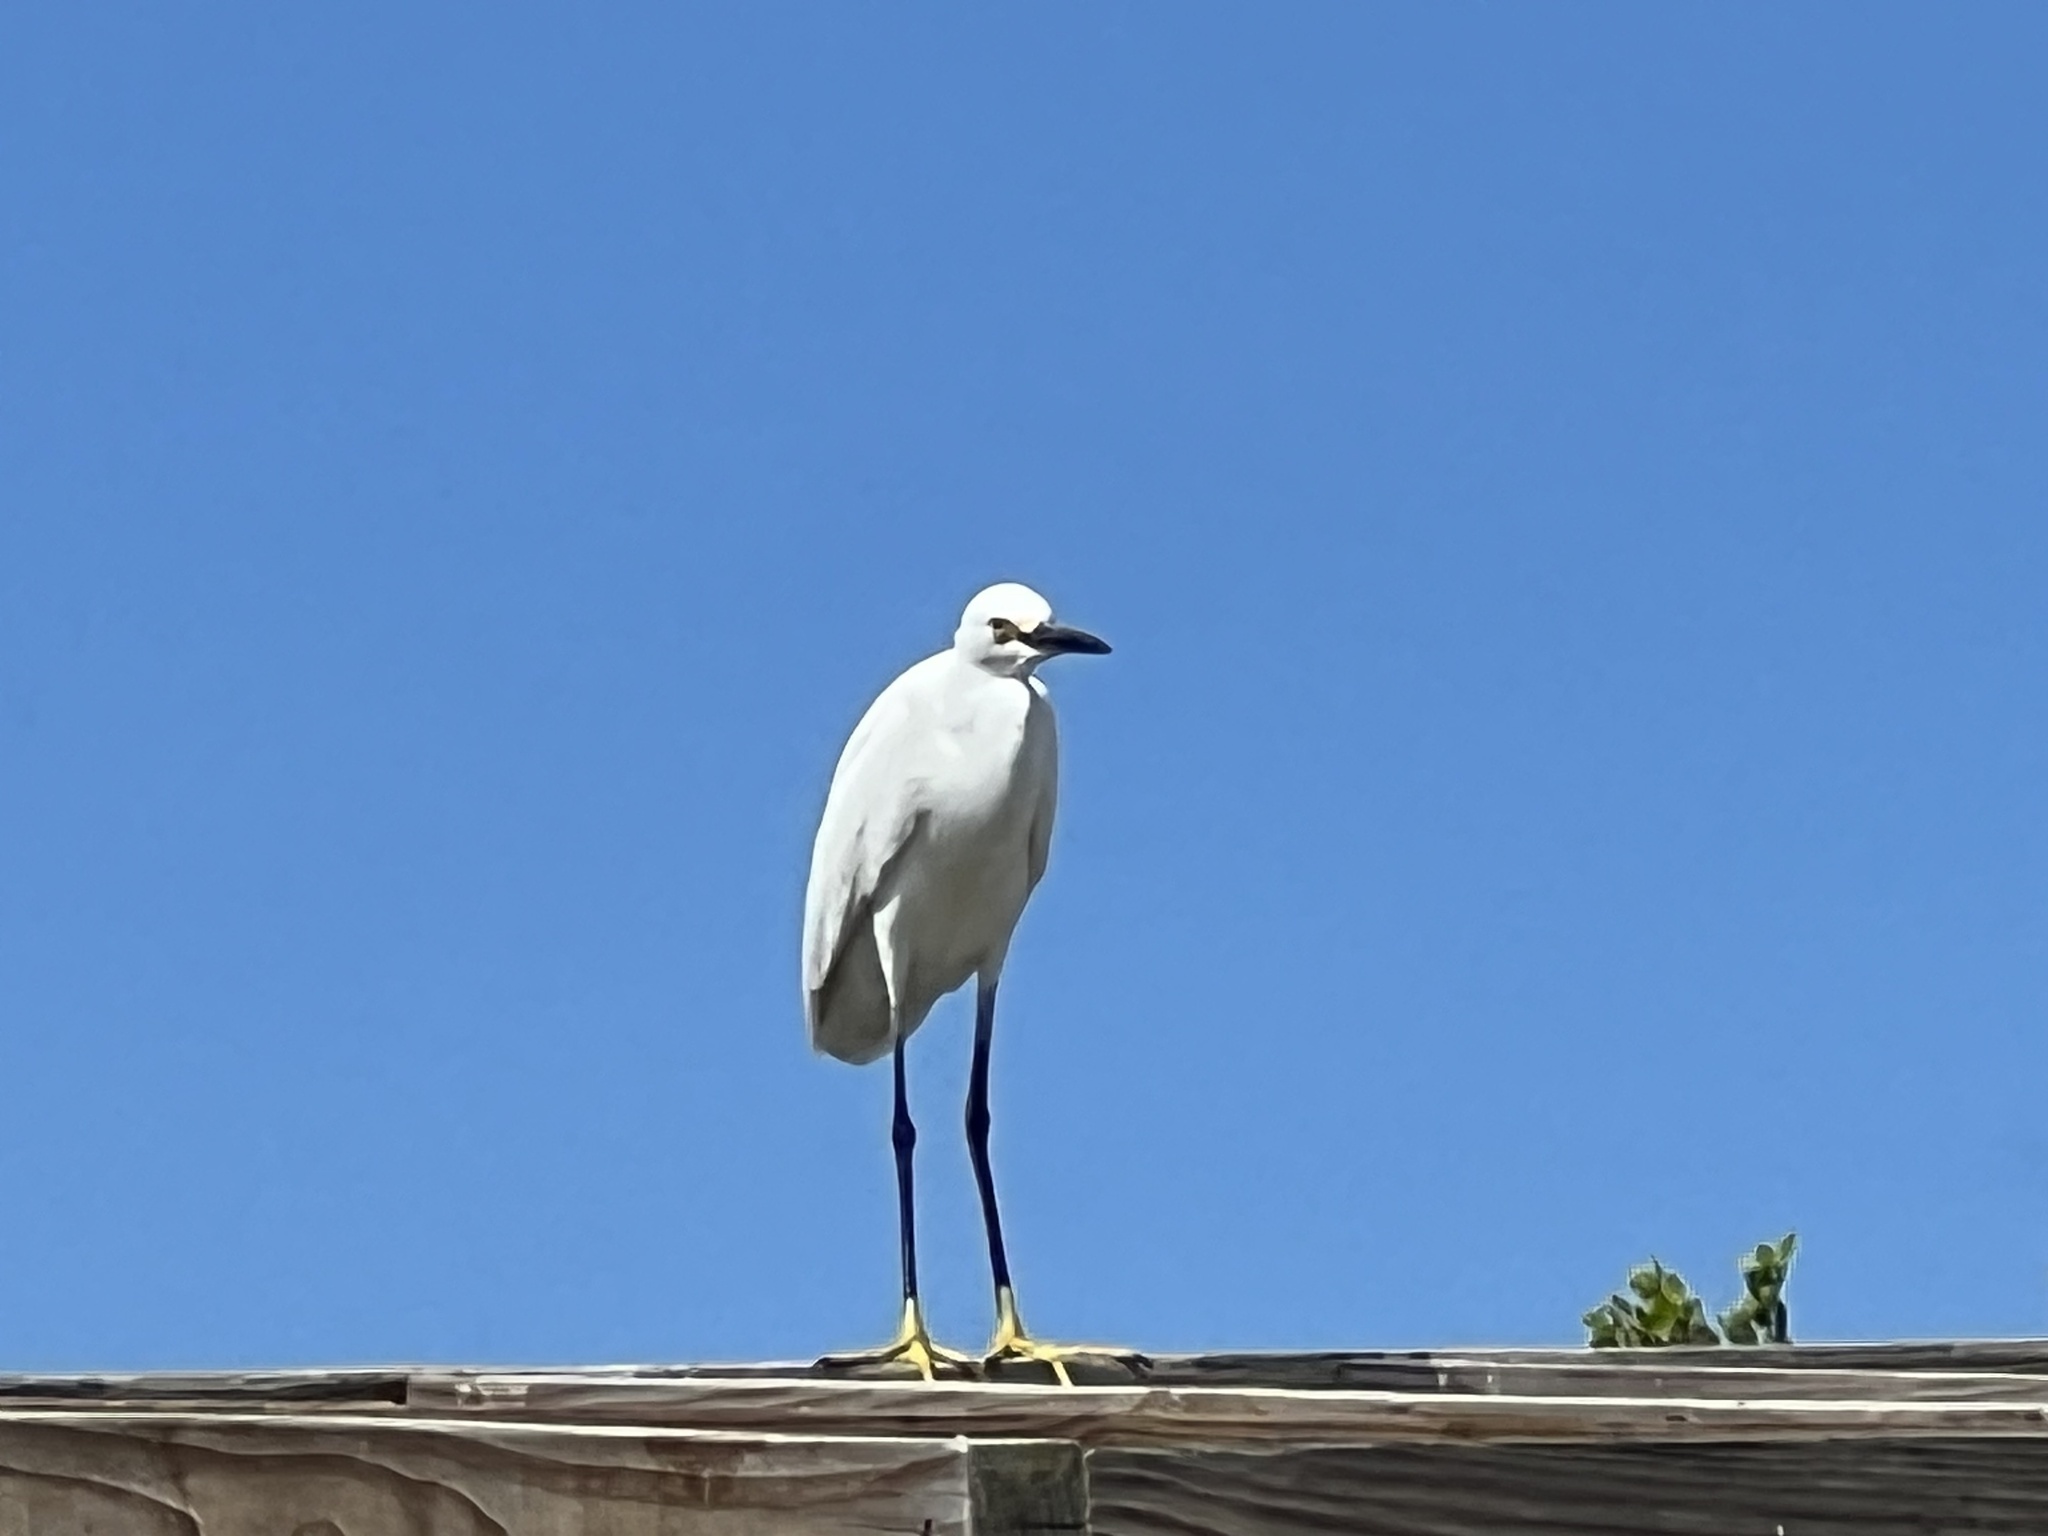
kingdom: Animalia
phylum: Chordata
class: Aves
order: Pelecaniformes
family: Ardeidae
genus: Egretta
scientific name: Egretta thula
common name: Snowy egret
